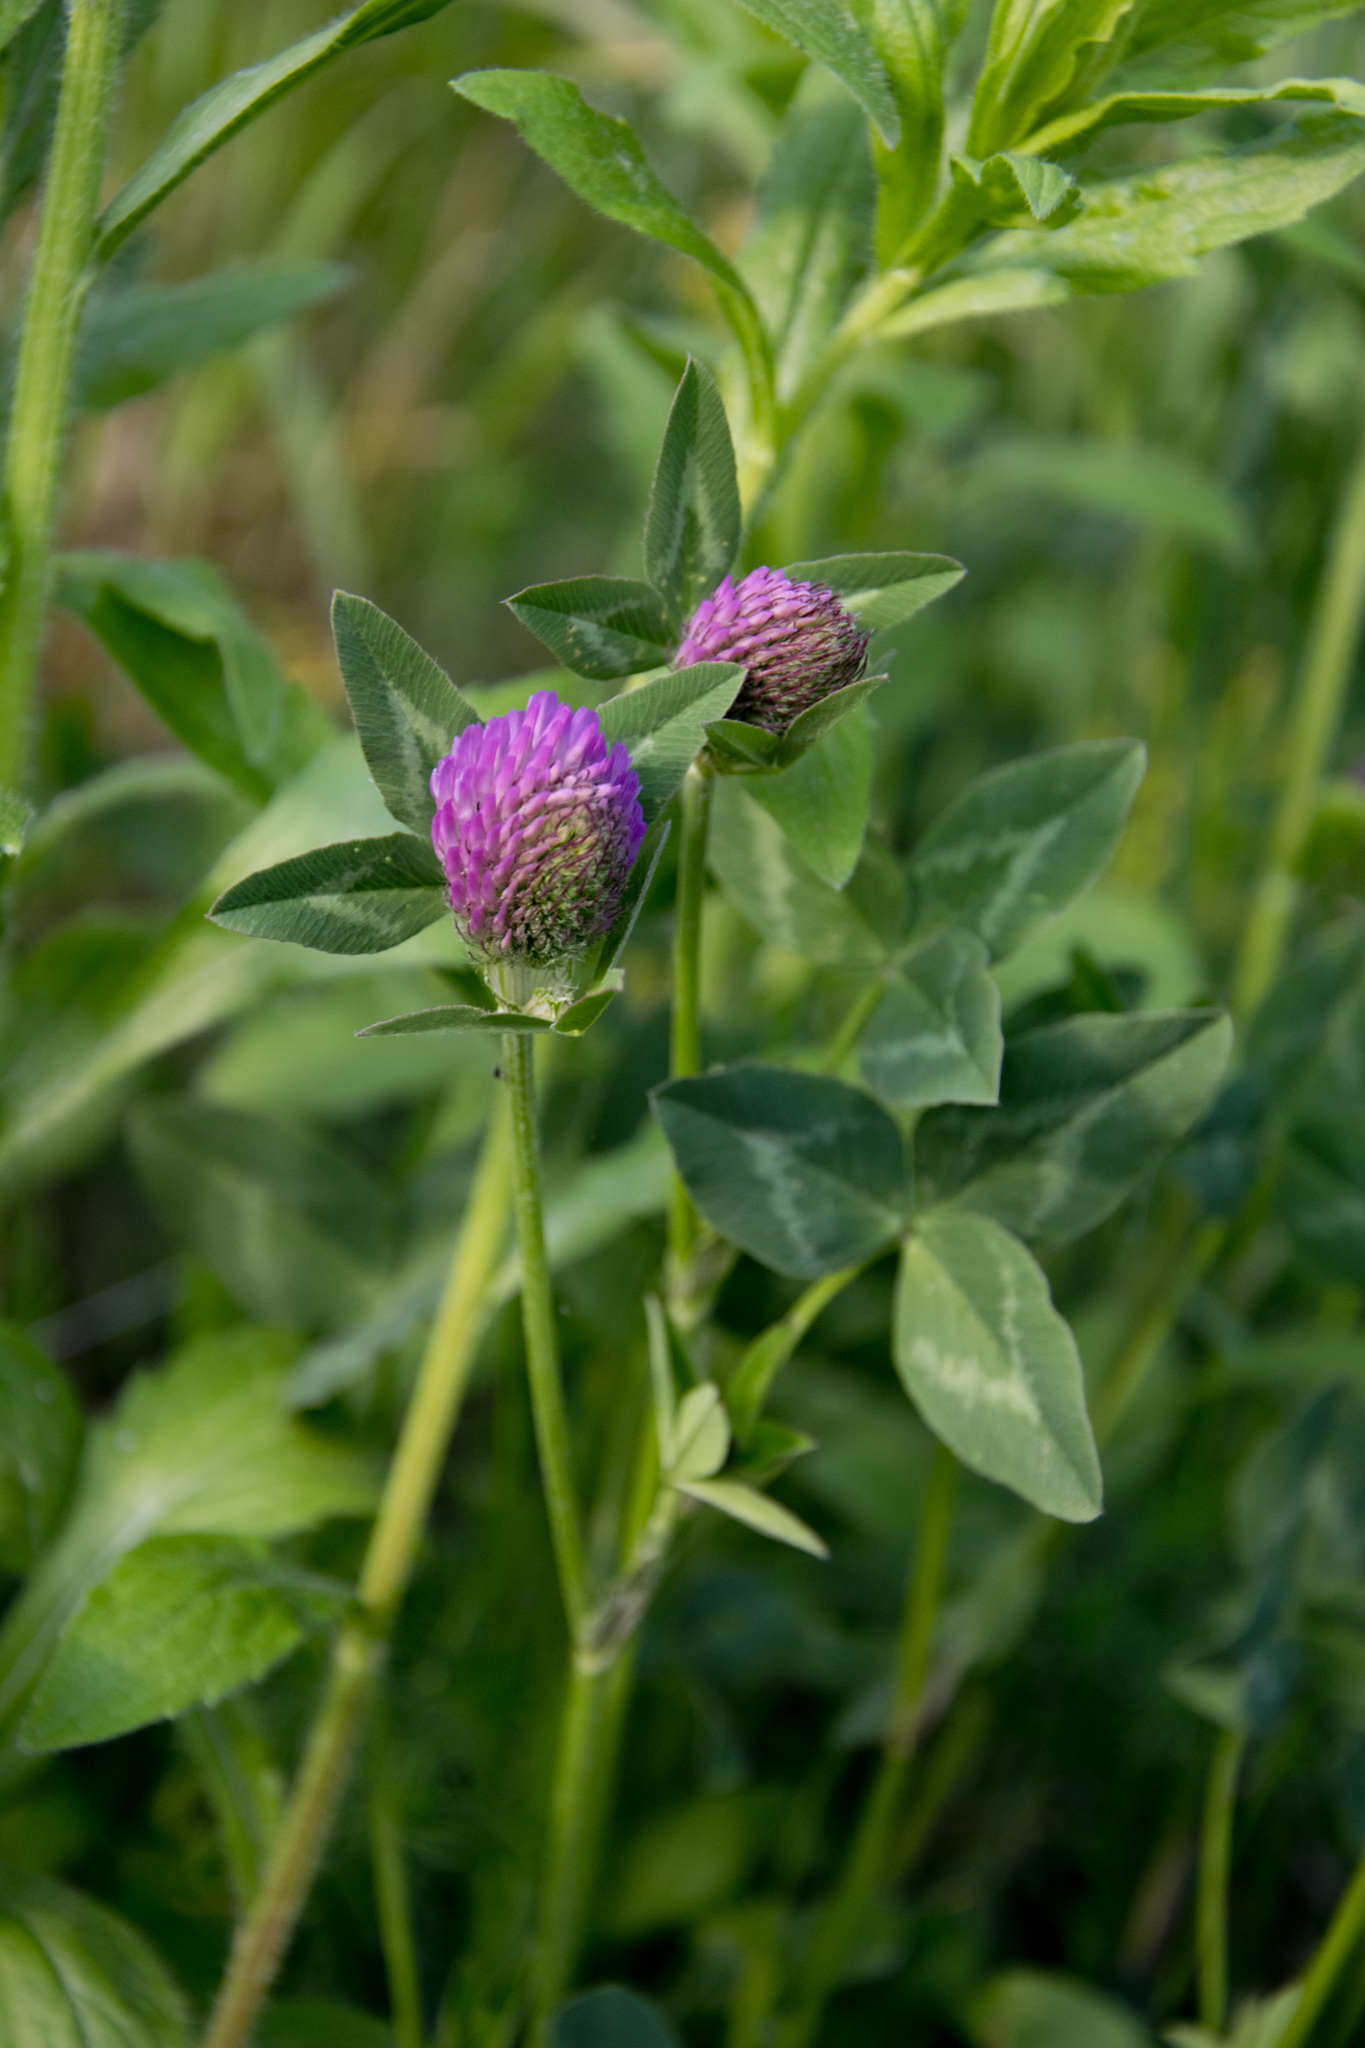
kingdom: Plantae
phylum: Tracheophyta
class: Magnoliopsida
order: Fabales
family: Fabaceae
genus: Trifolium
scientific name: Trifolium pratense
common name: Red clover
